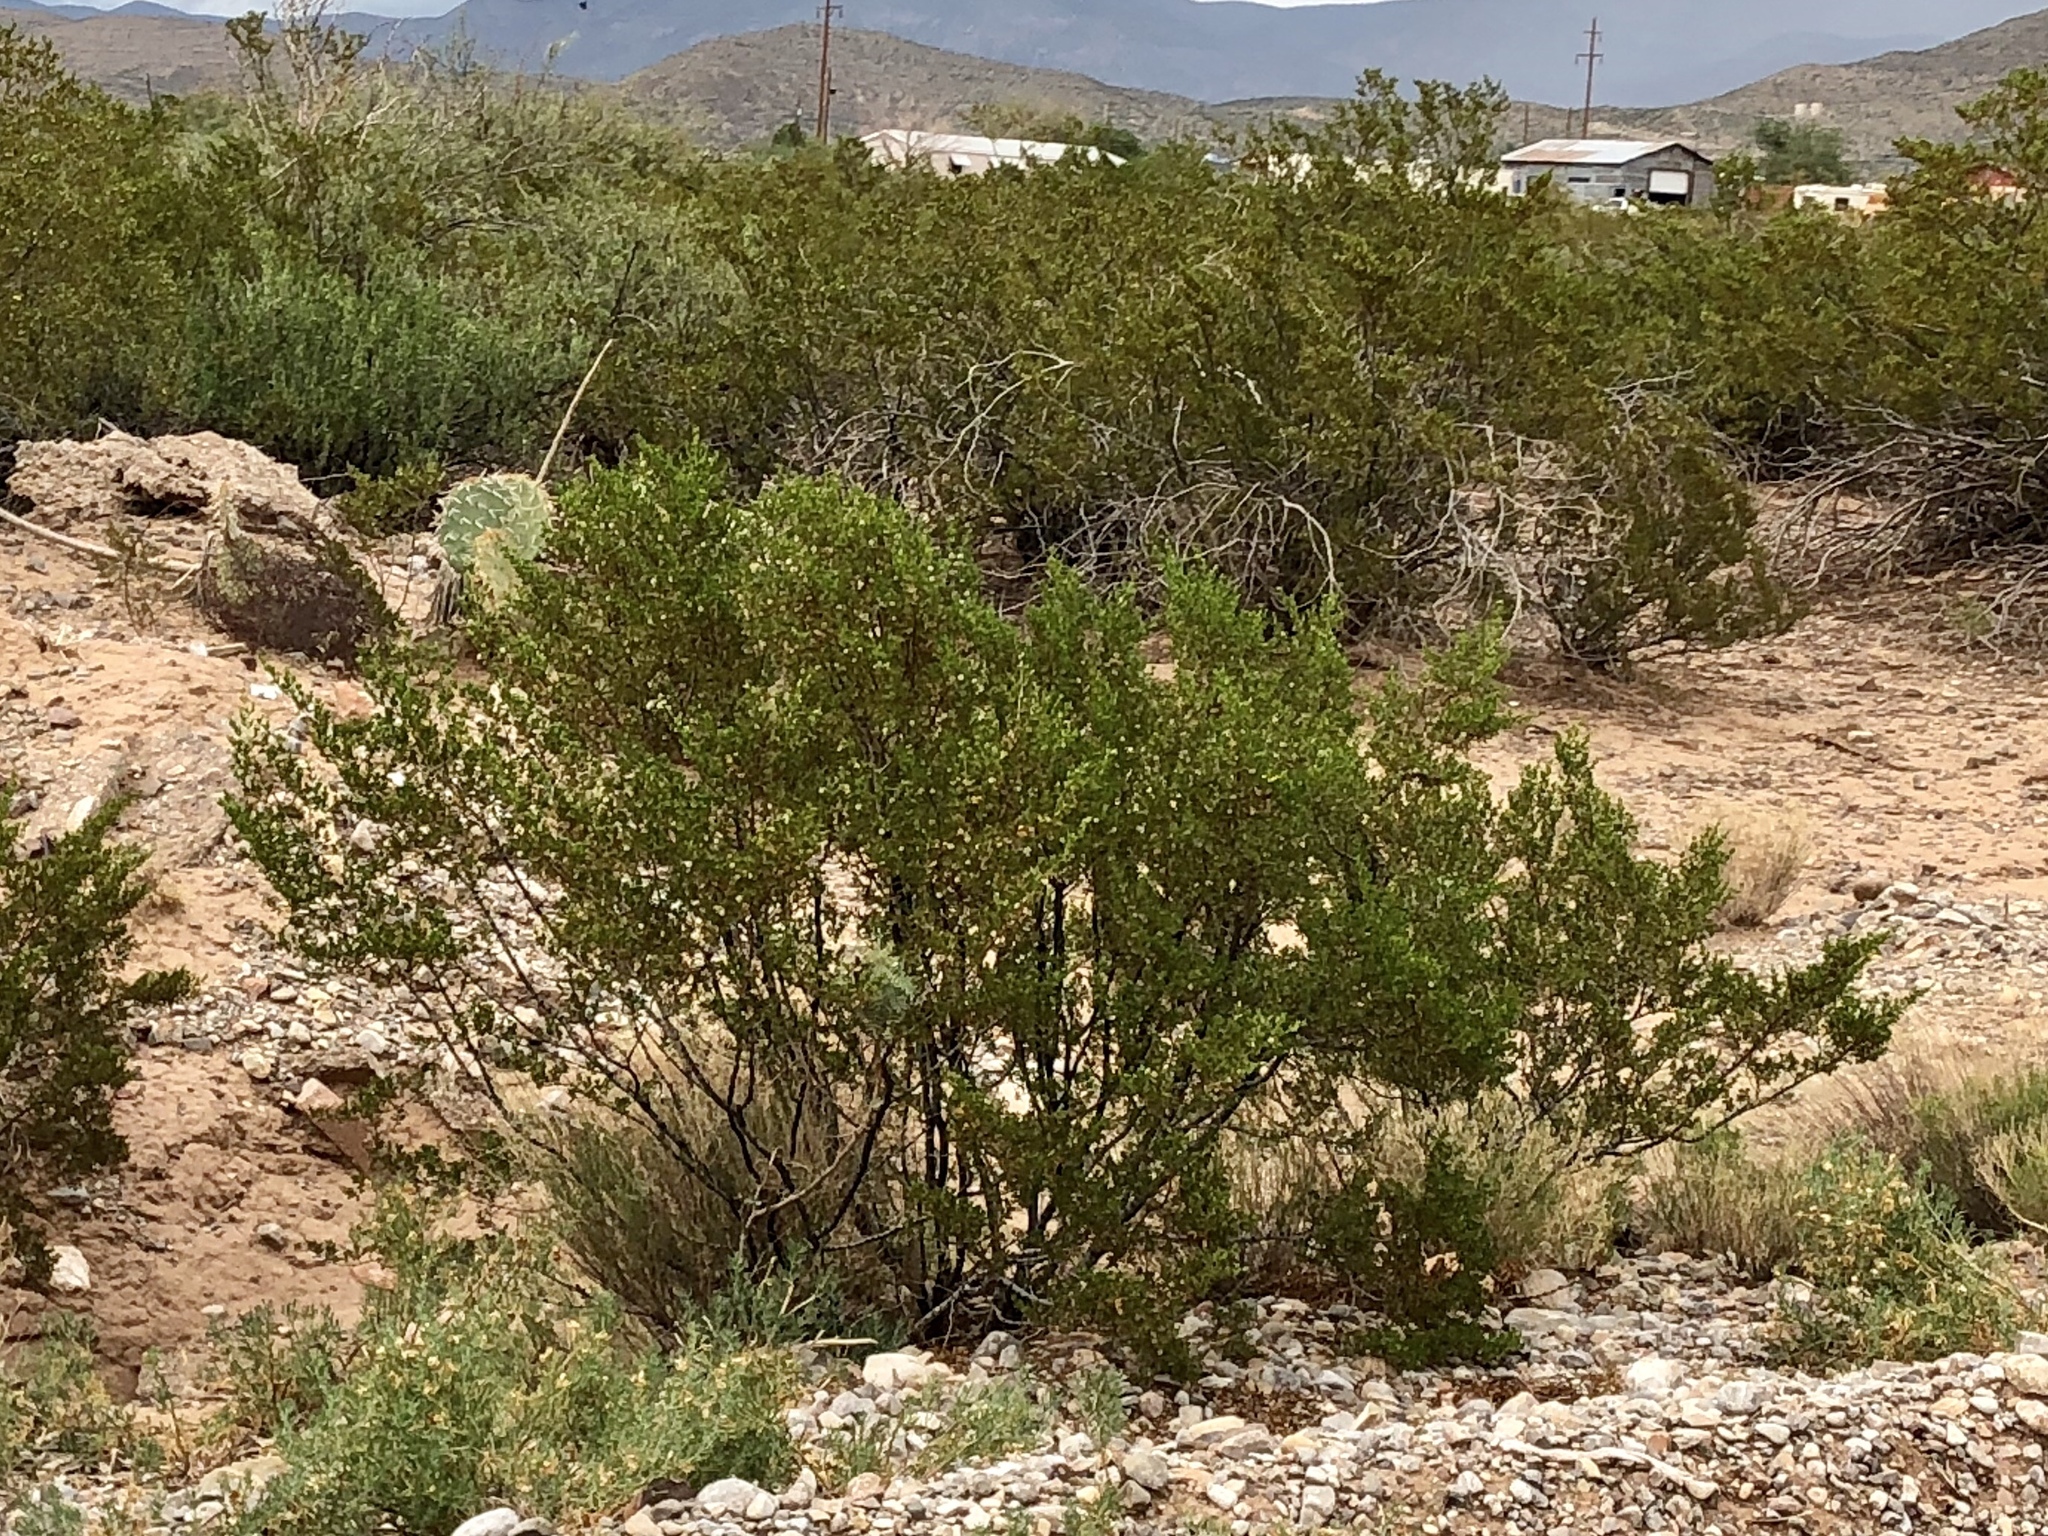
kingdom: Plantae
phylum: Tracheophyta
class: Magnoliopsida
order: Zygophyllales
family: Zygophyllaceae
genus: Larrea
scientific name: Larrea tridentata
